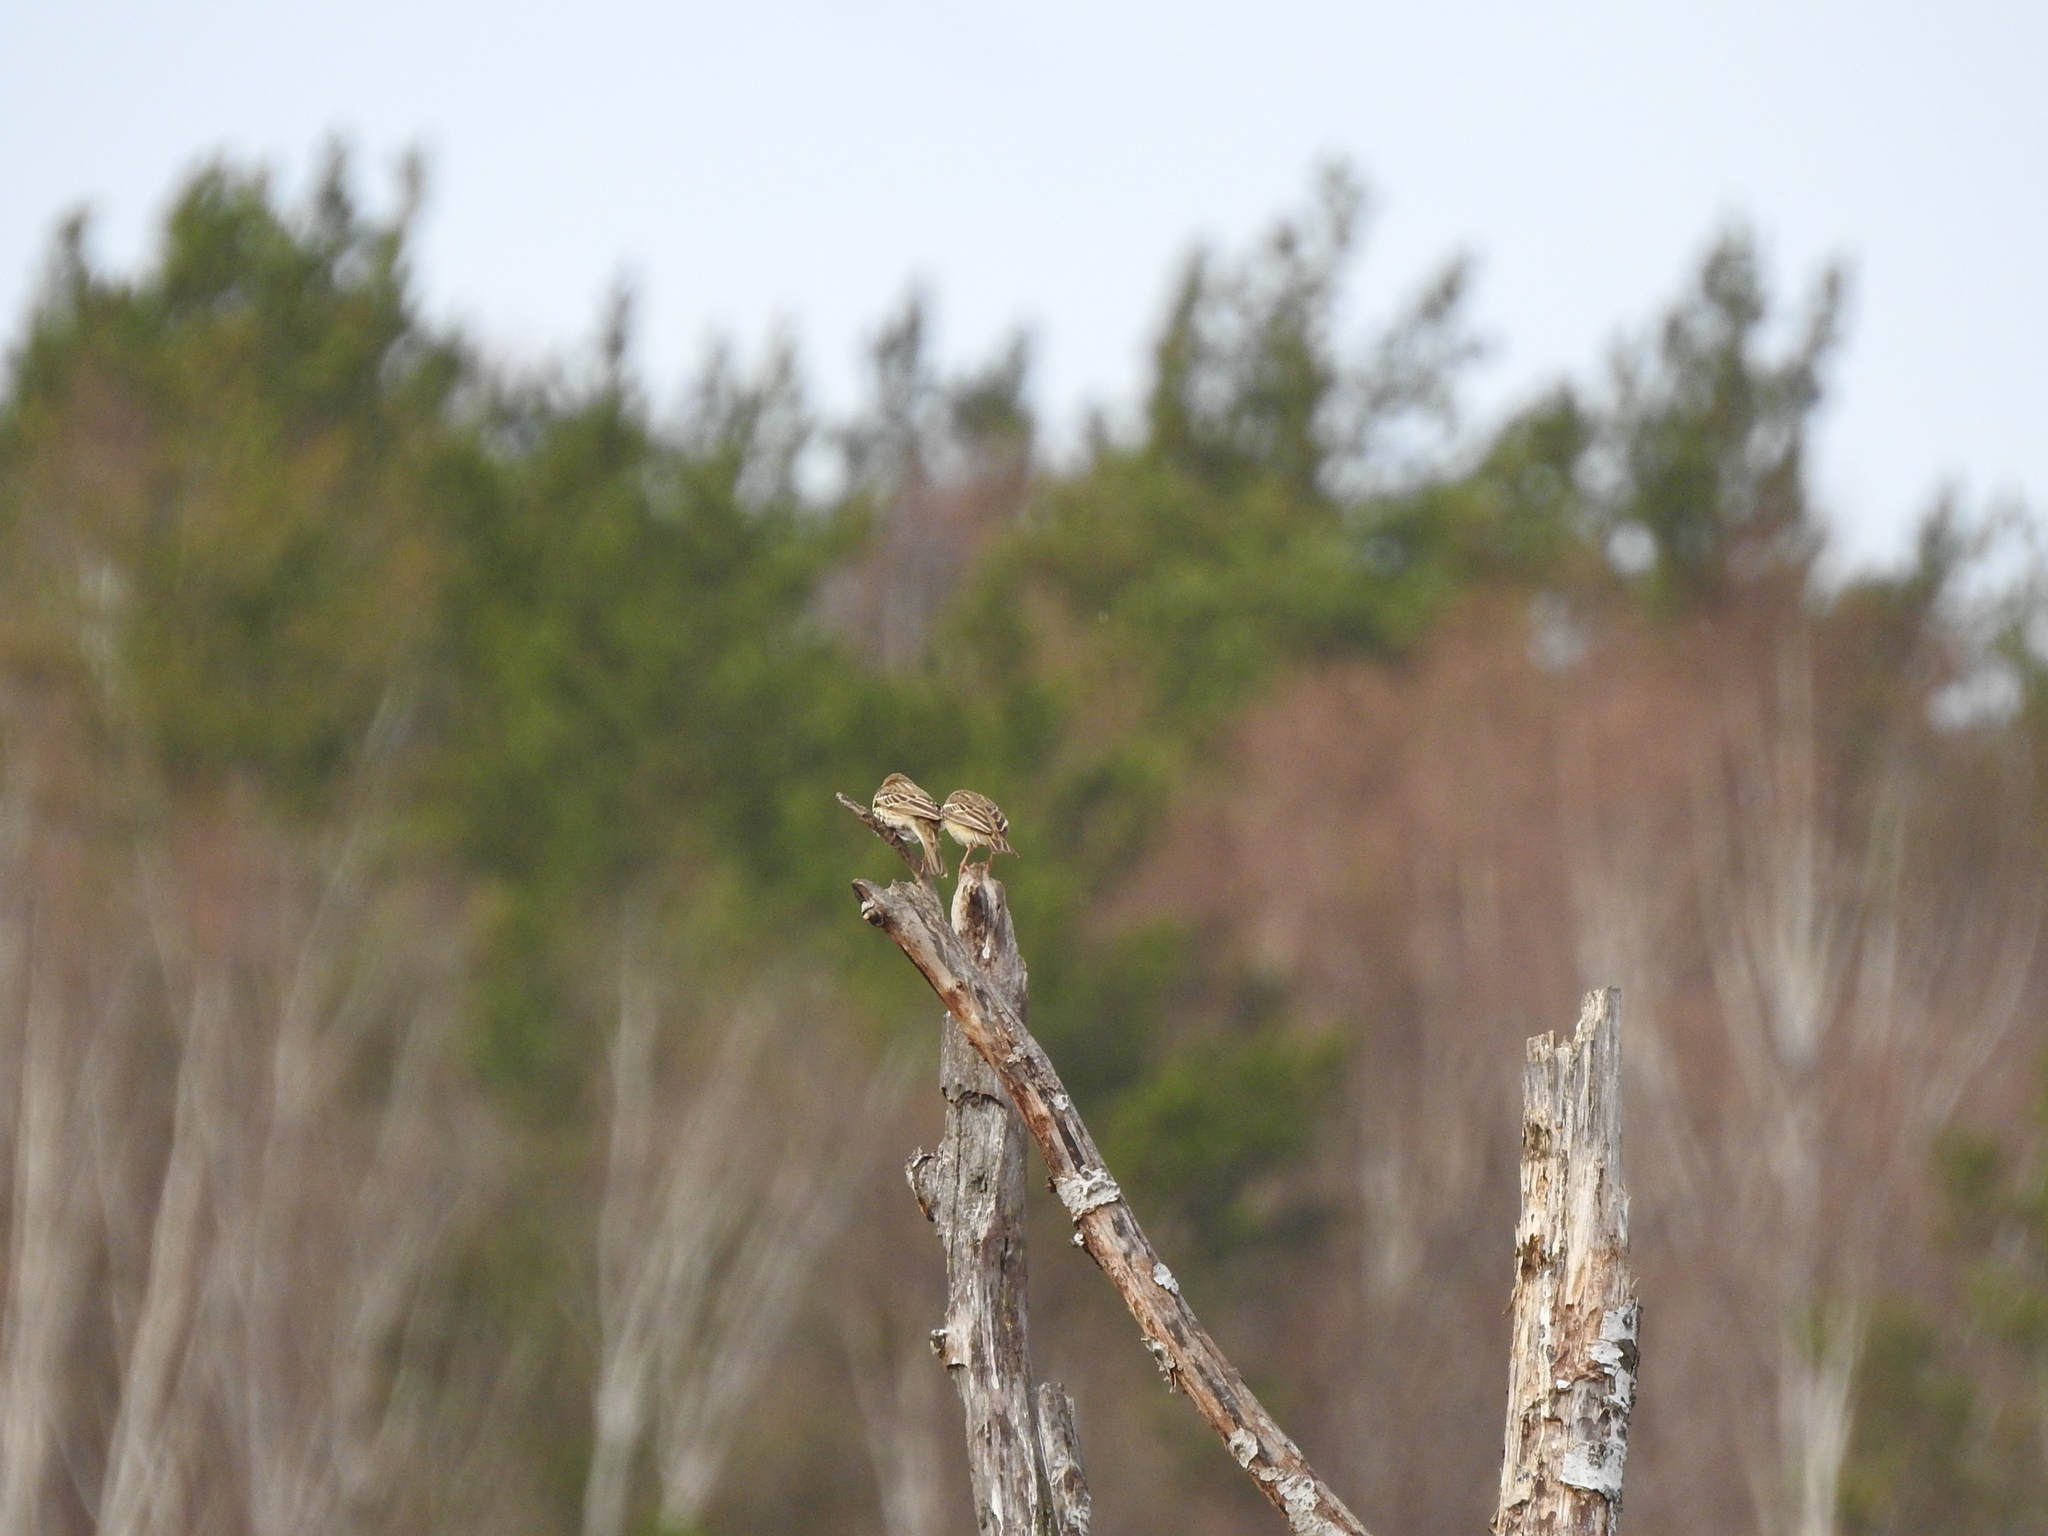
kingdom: Animalia
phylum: Chordata
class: Aves
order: Passeriformes
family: Motacillidae
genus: Anthus
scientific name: Anthus trivialis
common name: Tree pipit
